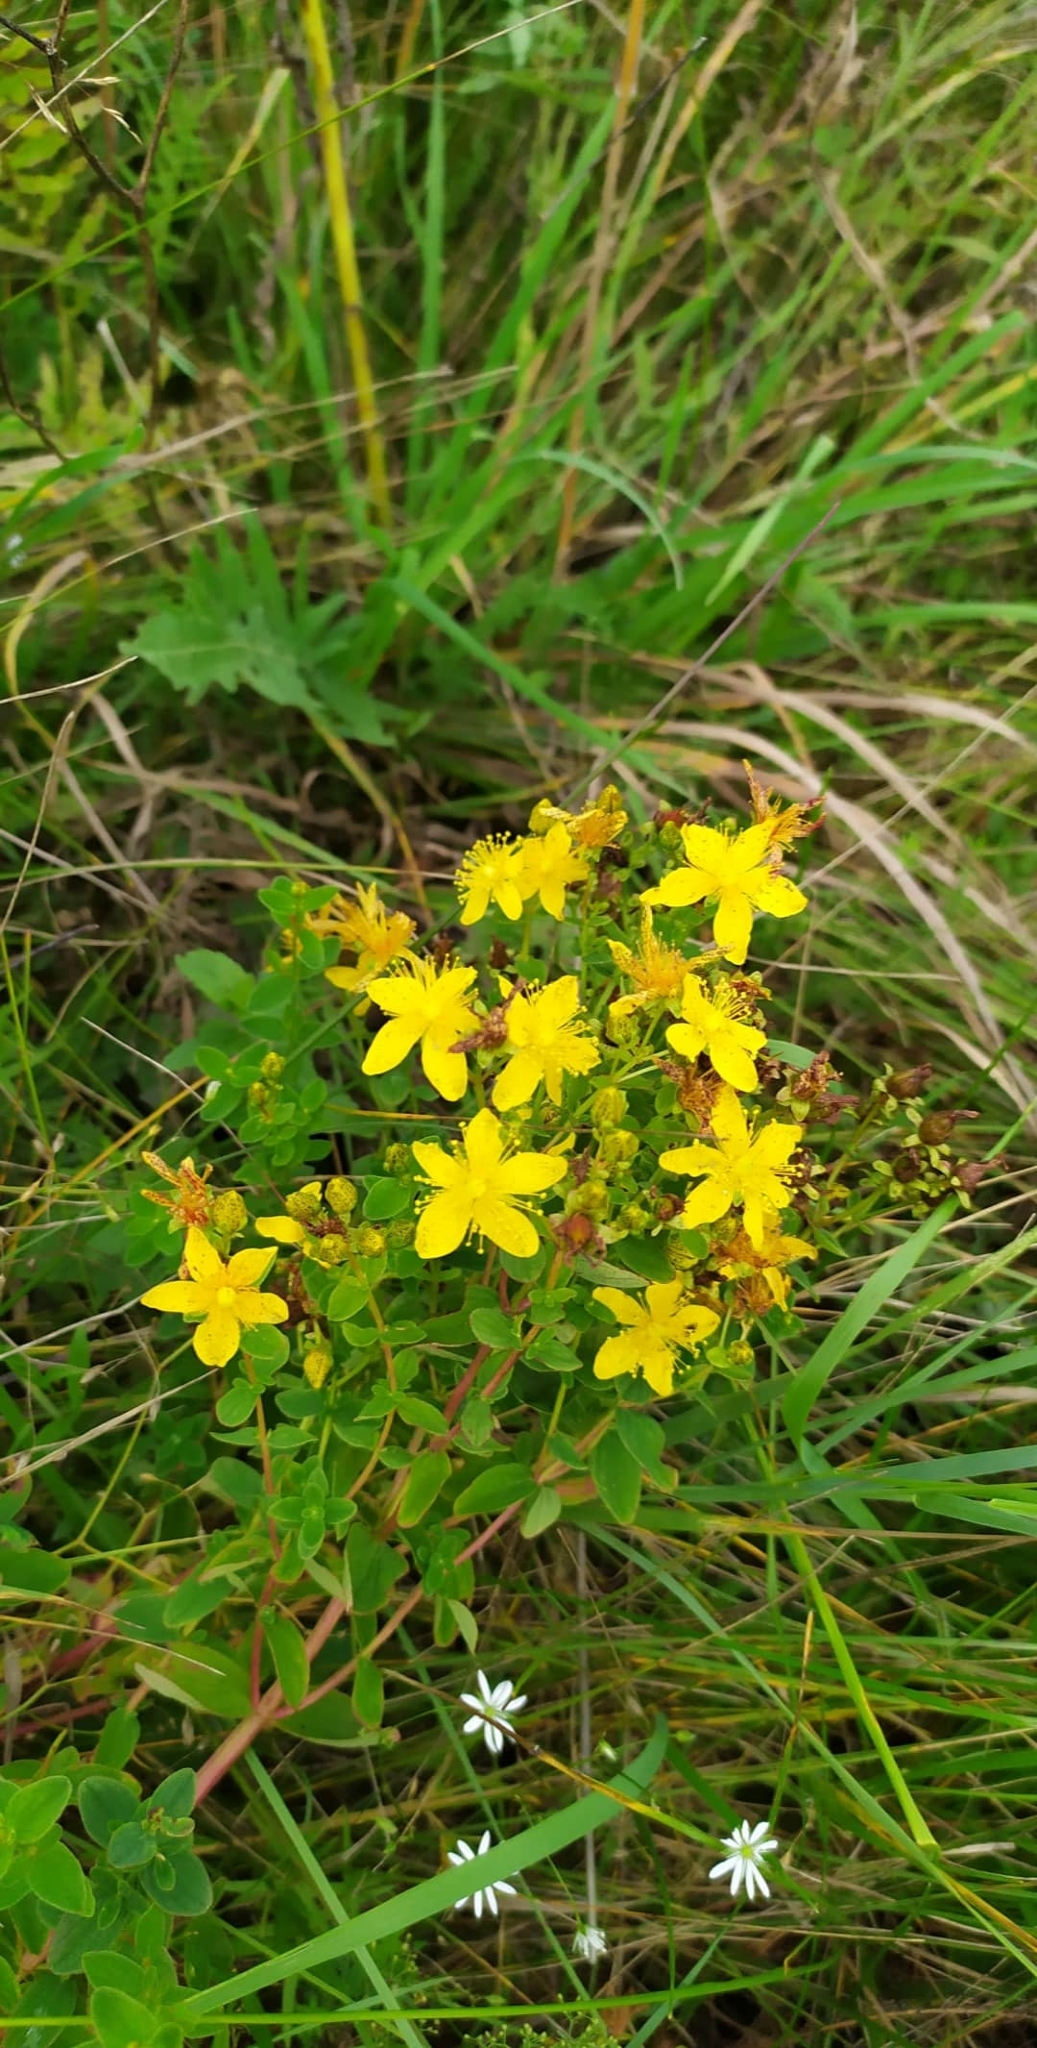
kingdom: Plantae
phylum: Tracheophyta
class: Magnoliopsida
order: Malpighiales
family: Hypericaceae
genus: Hypericum
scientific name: Hypericum maculatum
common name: Imperforate st. john's-wort
